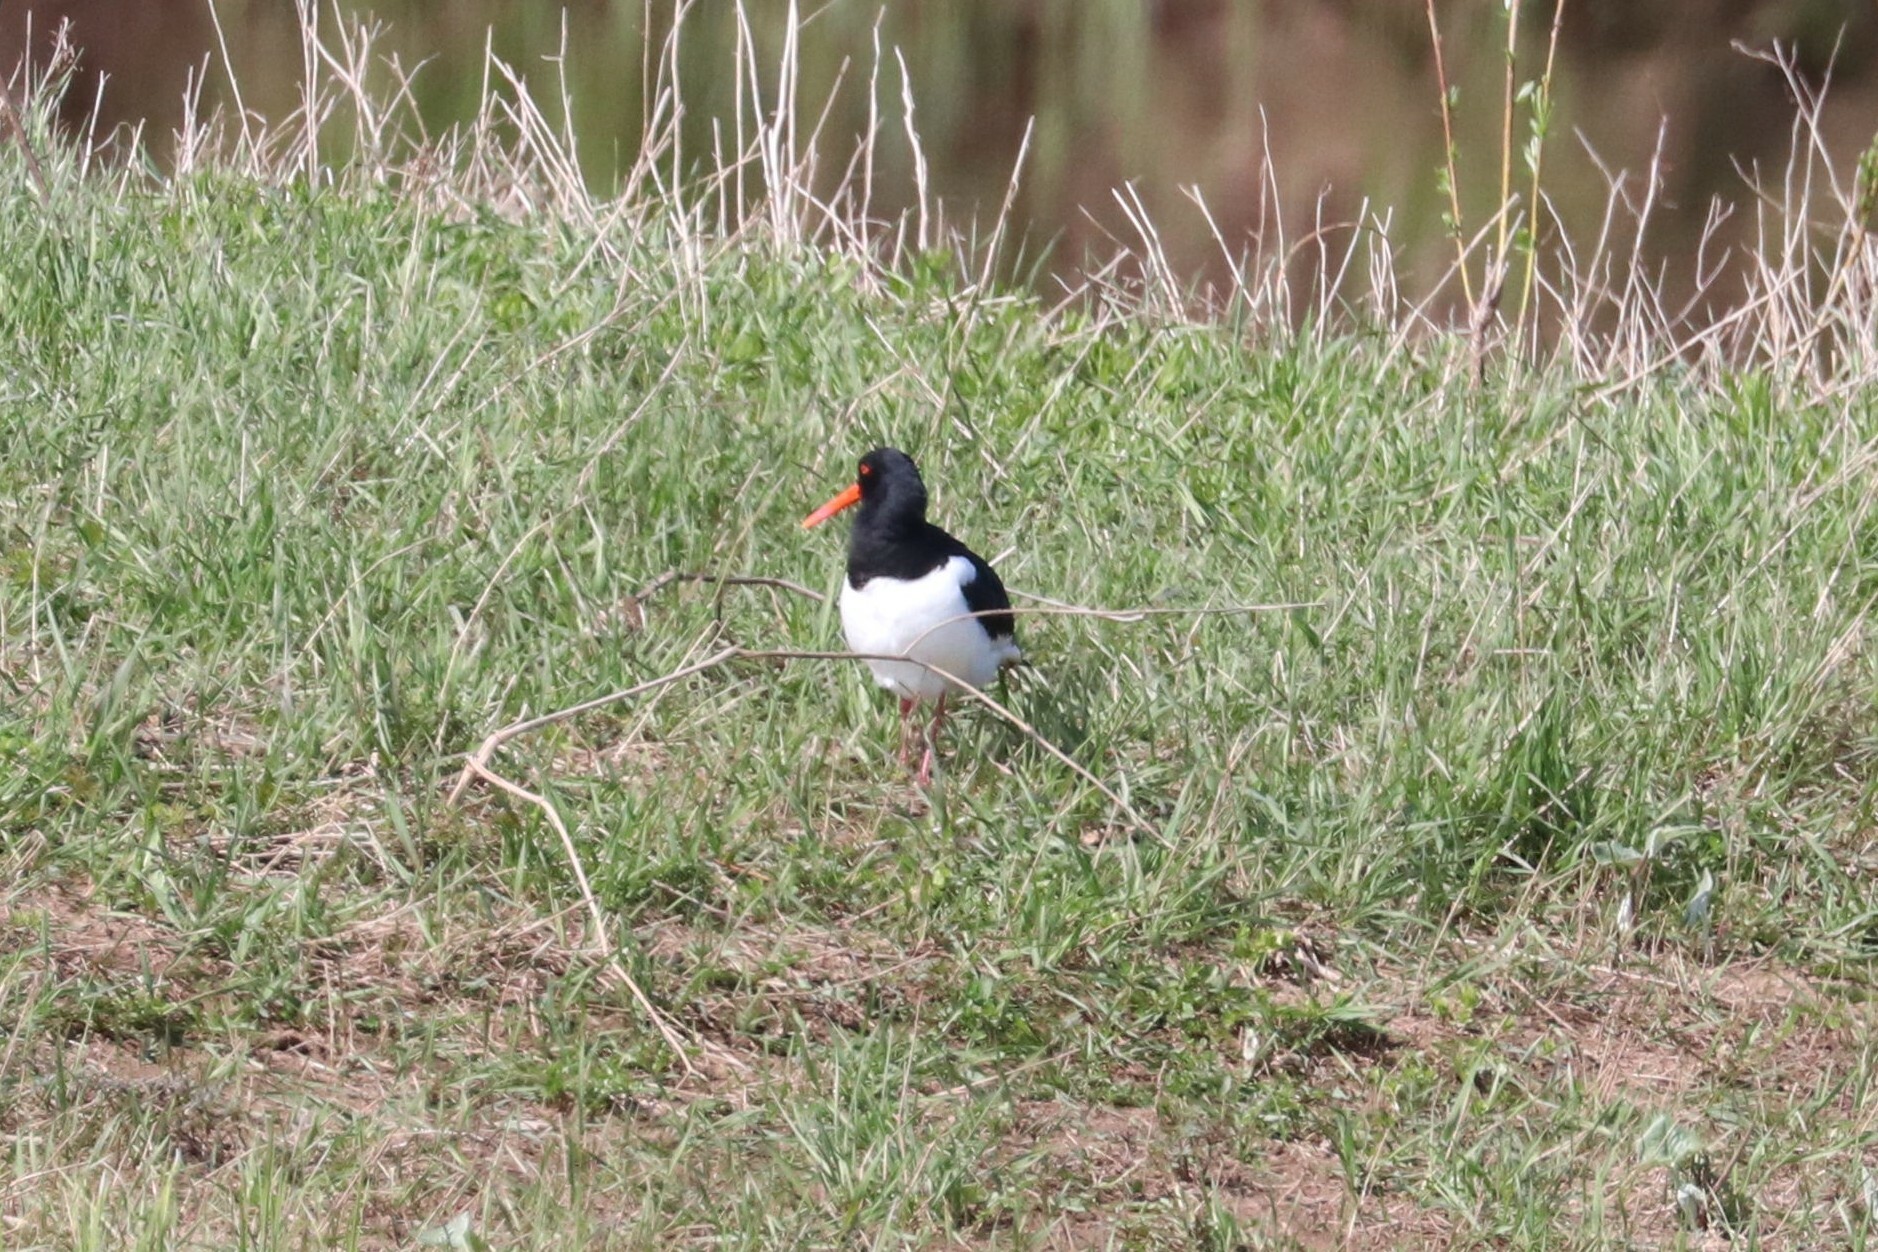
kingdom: Animalia
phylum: Chordata
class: Aves
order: Charadriiformes
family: Haematopodidae
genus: Haematopus
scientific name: Haematopus ostralegus
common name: Eurasian oystercatcher
